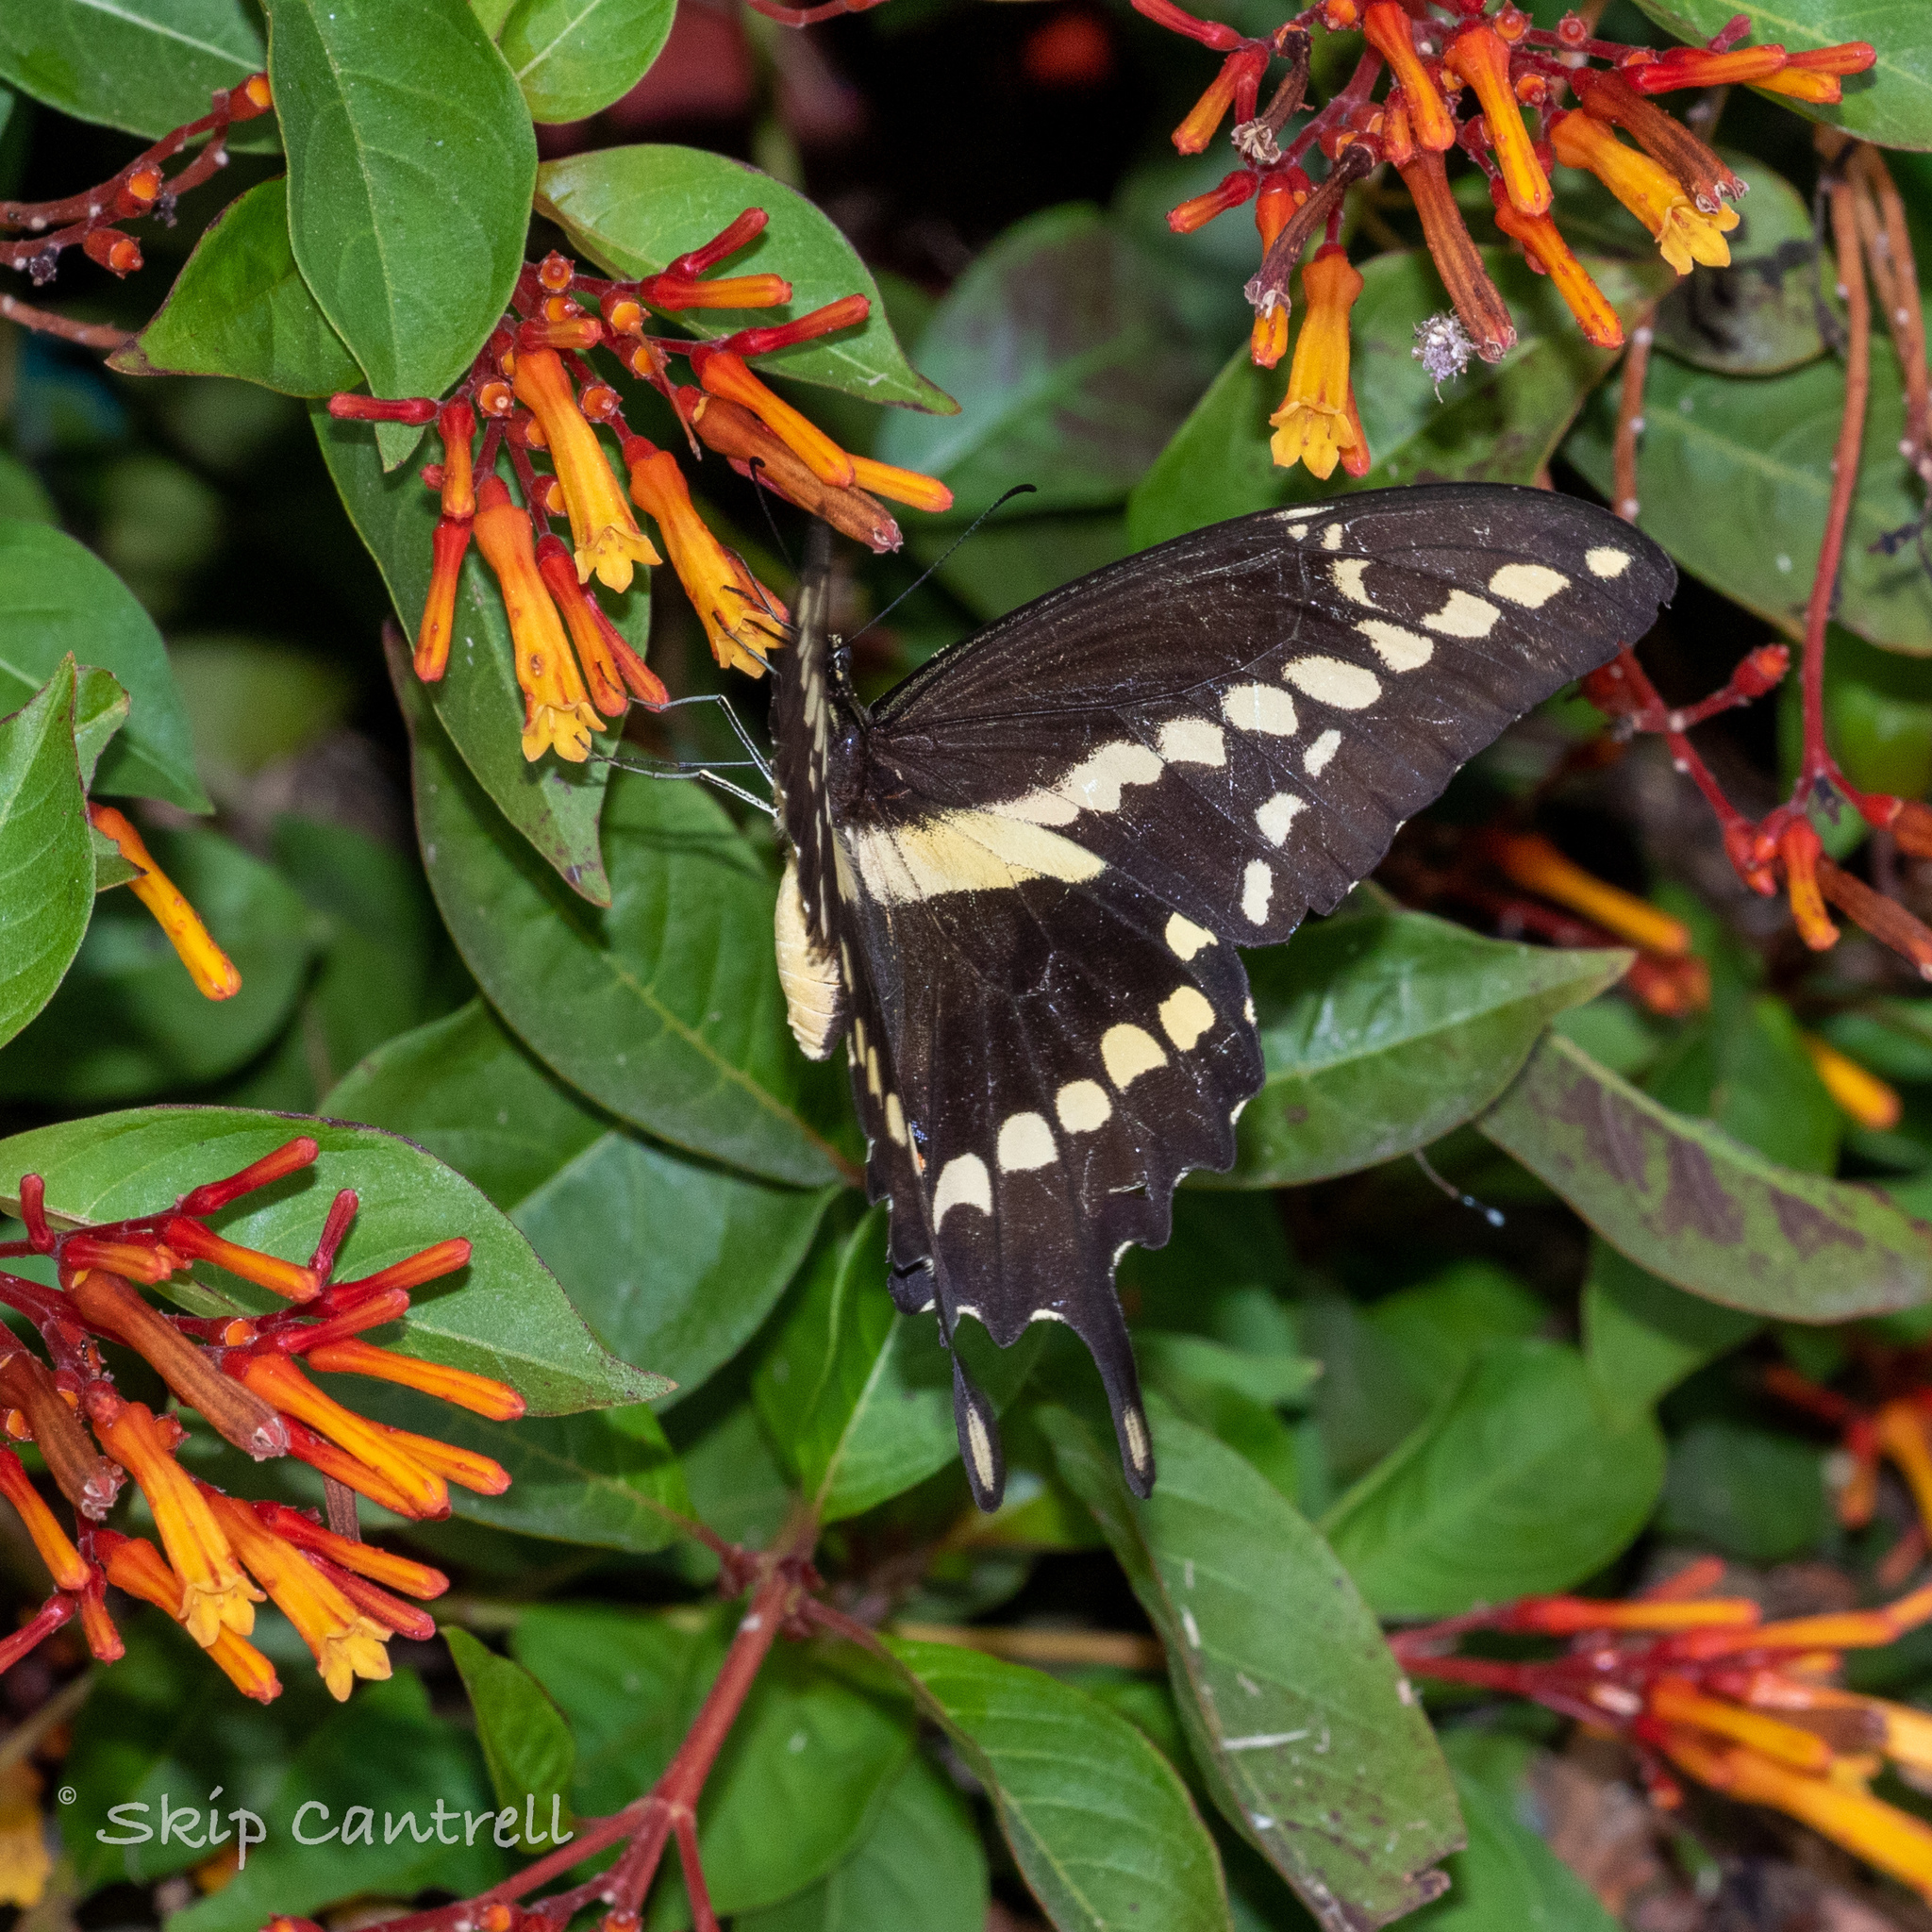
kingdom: Animalia
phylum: Arthropoda
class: Insecta
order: Lepidoptera
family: Papilionidae
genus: Papilio
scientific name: Papilio rumiko
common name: Western giant swallowtail
